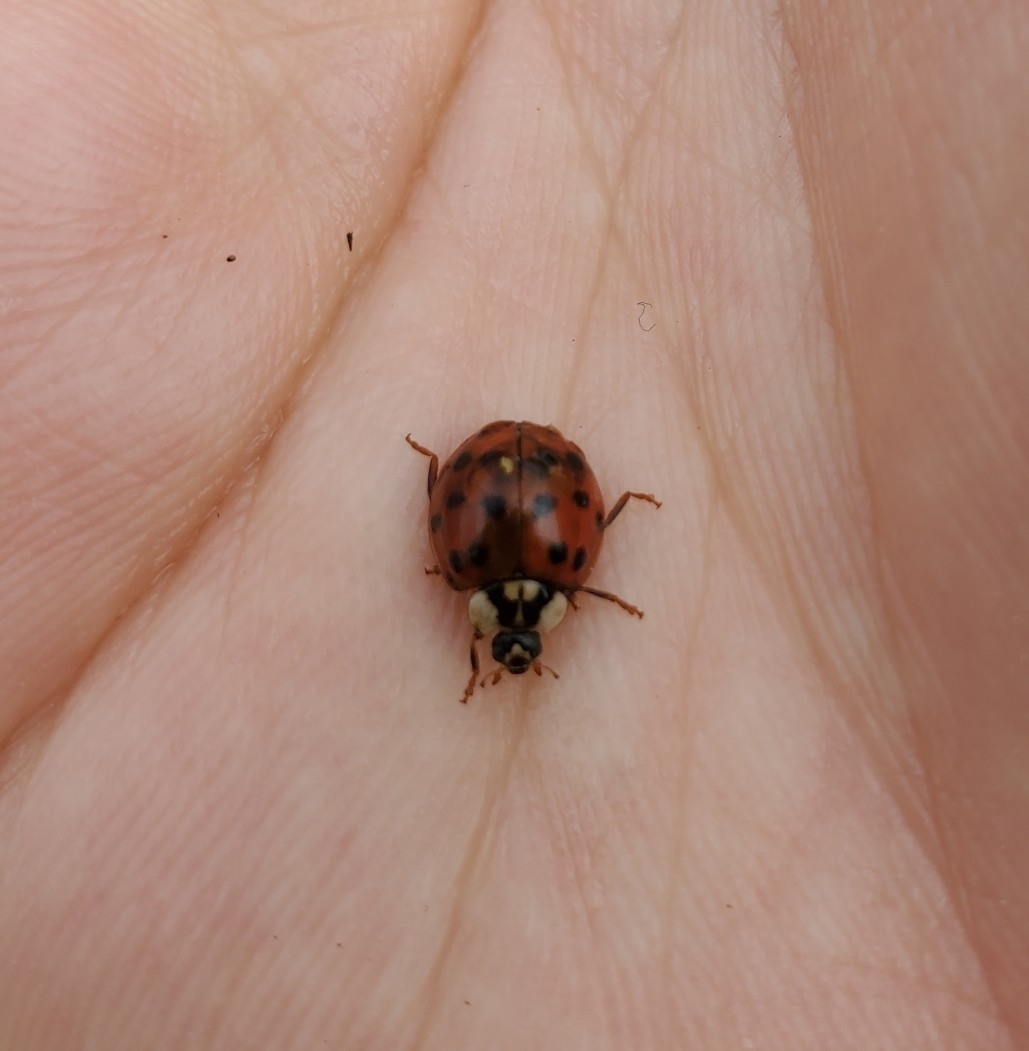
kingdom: Animalia
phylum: Arthropoda
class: Insecta
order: Coleoptera
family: Coccinellidae
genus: Harmonia
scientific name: Harmonia axyridis
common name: Harlequin ladybird
